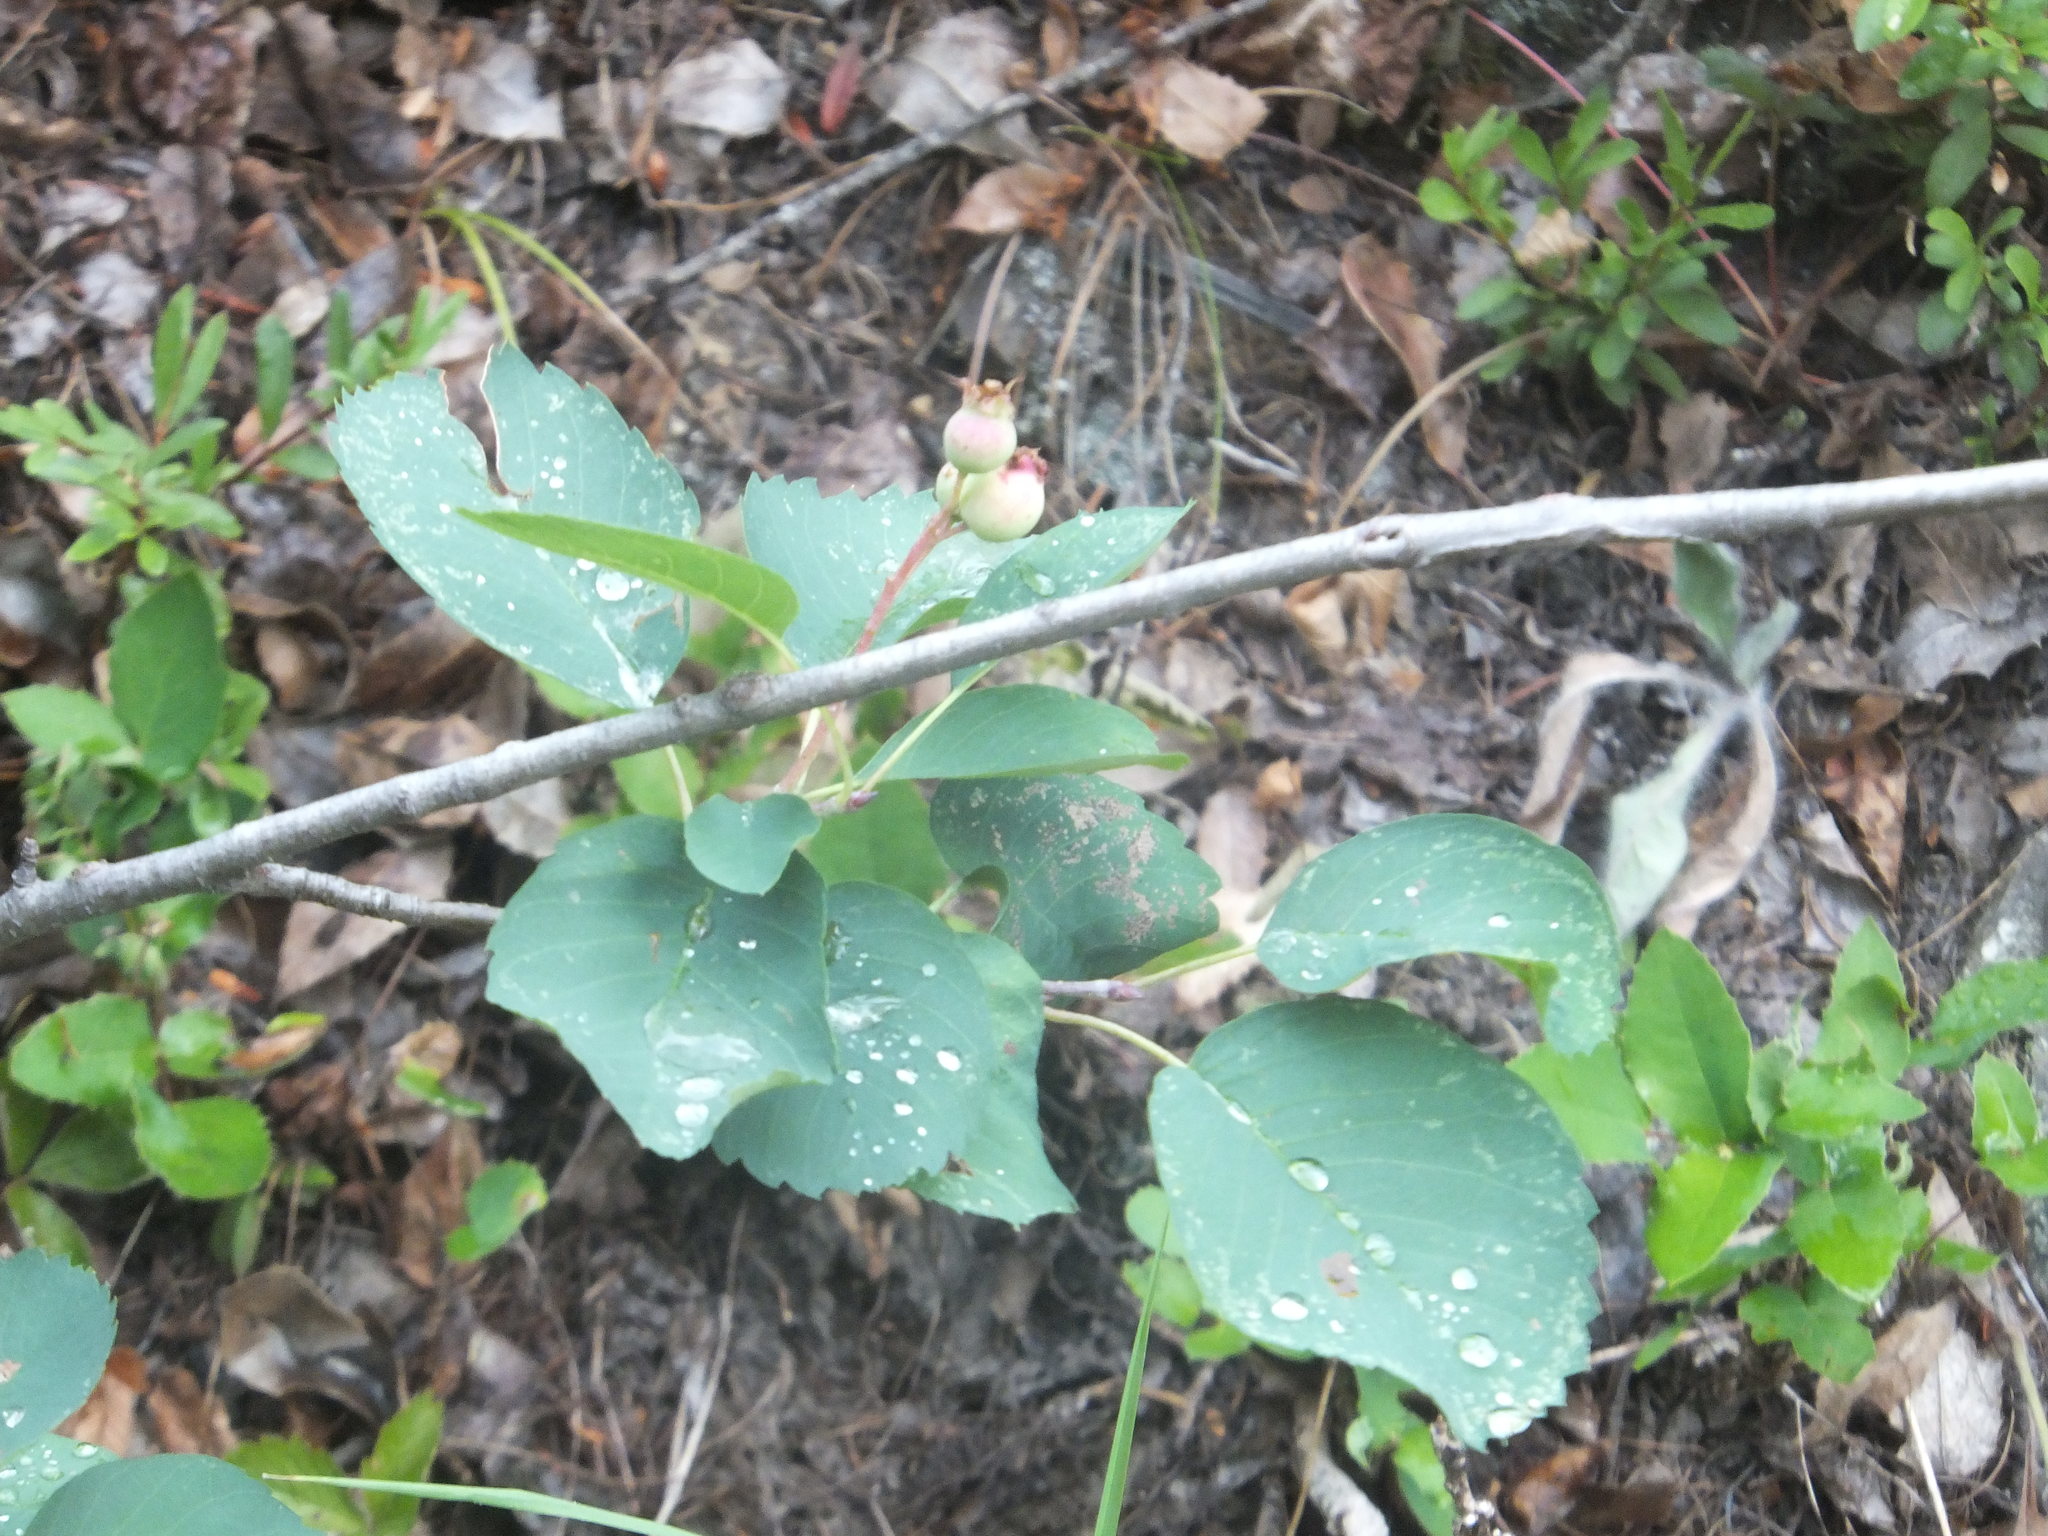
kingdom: Plantae
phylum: Tracheophyta
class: Magnoliopsida
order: Rosales
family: Rosaceae
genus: Amelanchier
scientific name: Amelanchier alnifolia
